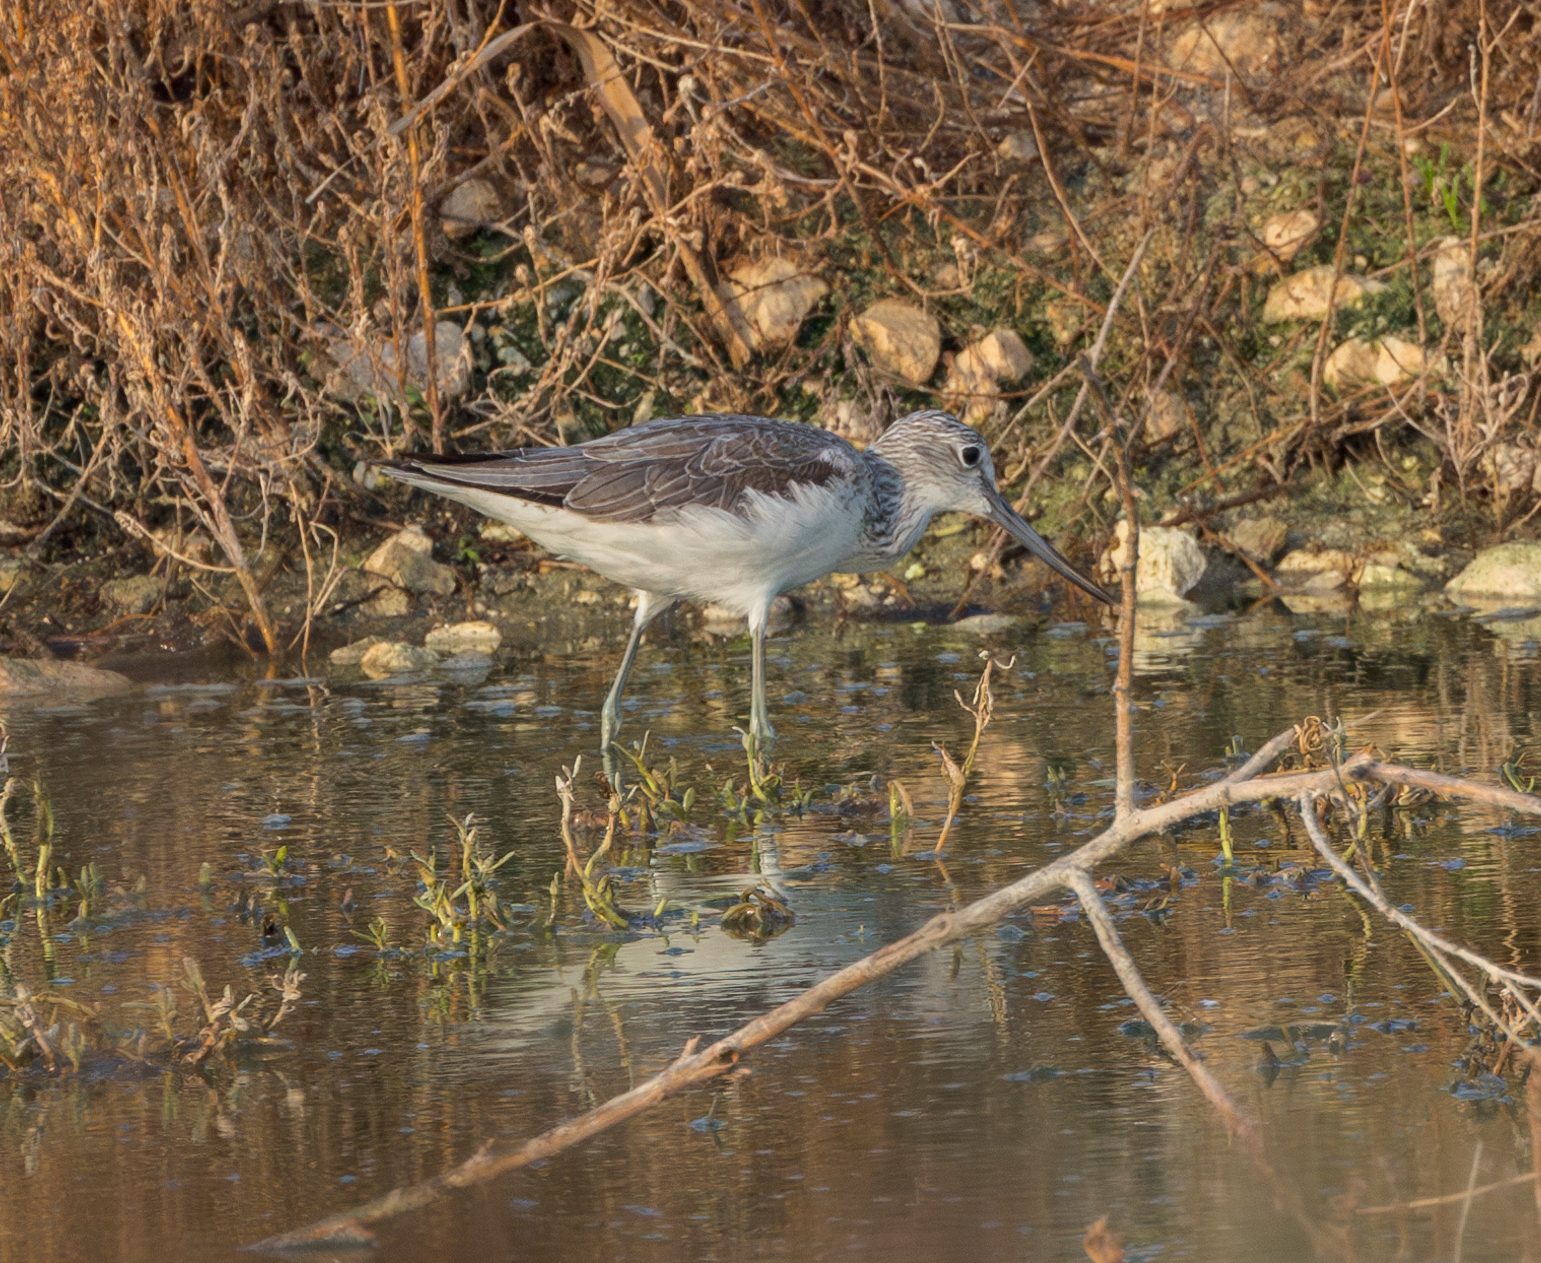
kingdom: Animalia
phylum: Chordata
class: Aves
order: Charadriiformes
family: Scolopacidae
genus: Tringa
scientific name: Tringa nebularia
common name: Common greenshank
